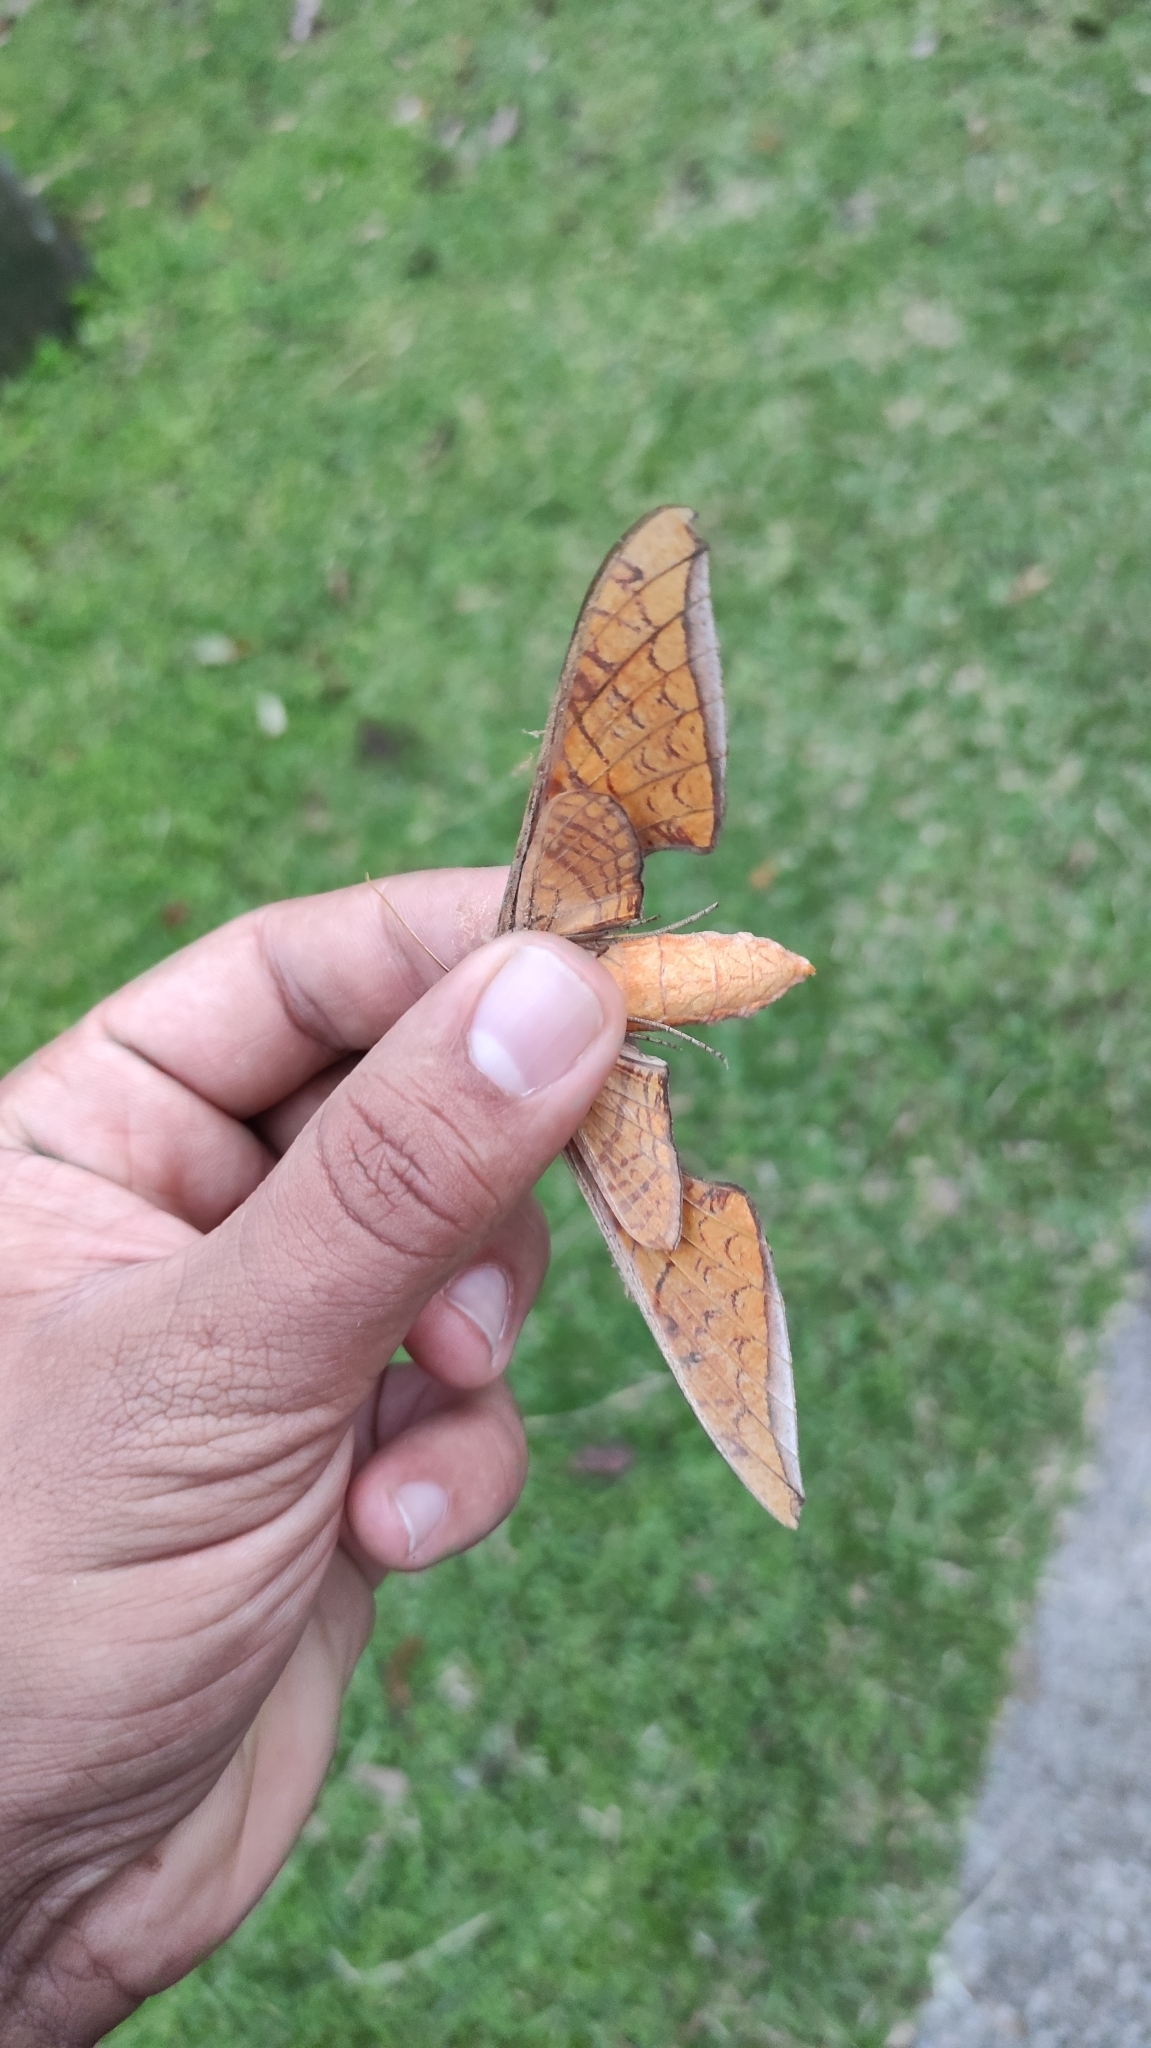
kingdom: Animalia
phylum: Arthropoda
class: Insecta
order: Lepidoptera
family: Sphingidae
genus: Protambulyx
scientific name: Protambulyx strigilis
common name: Streaked sphinx
